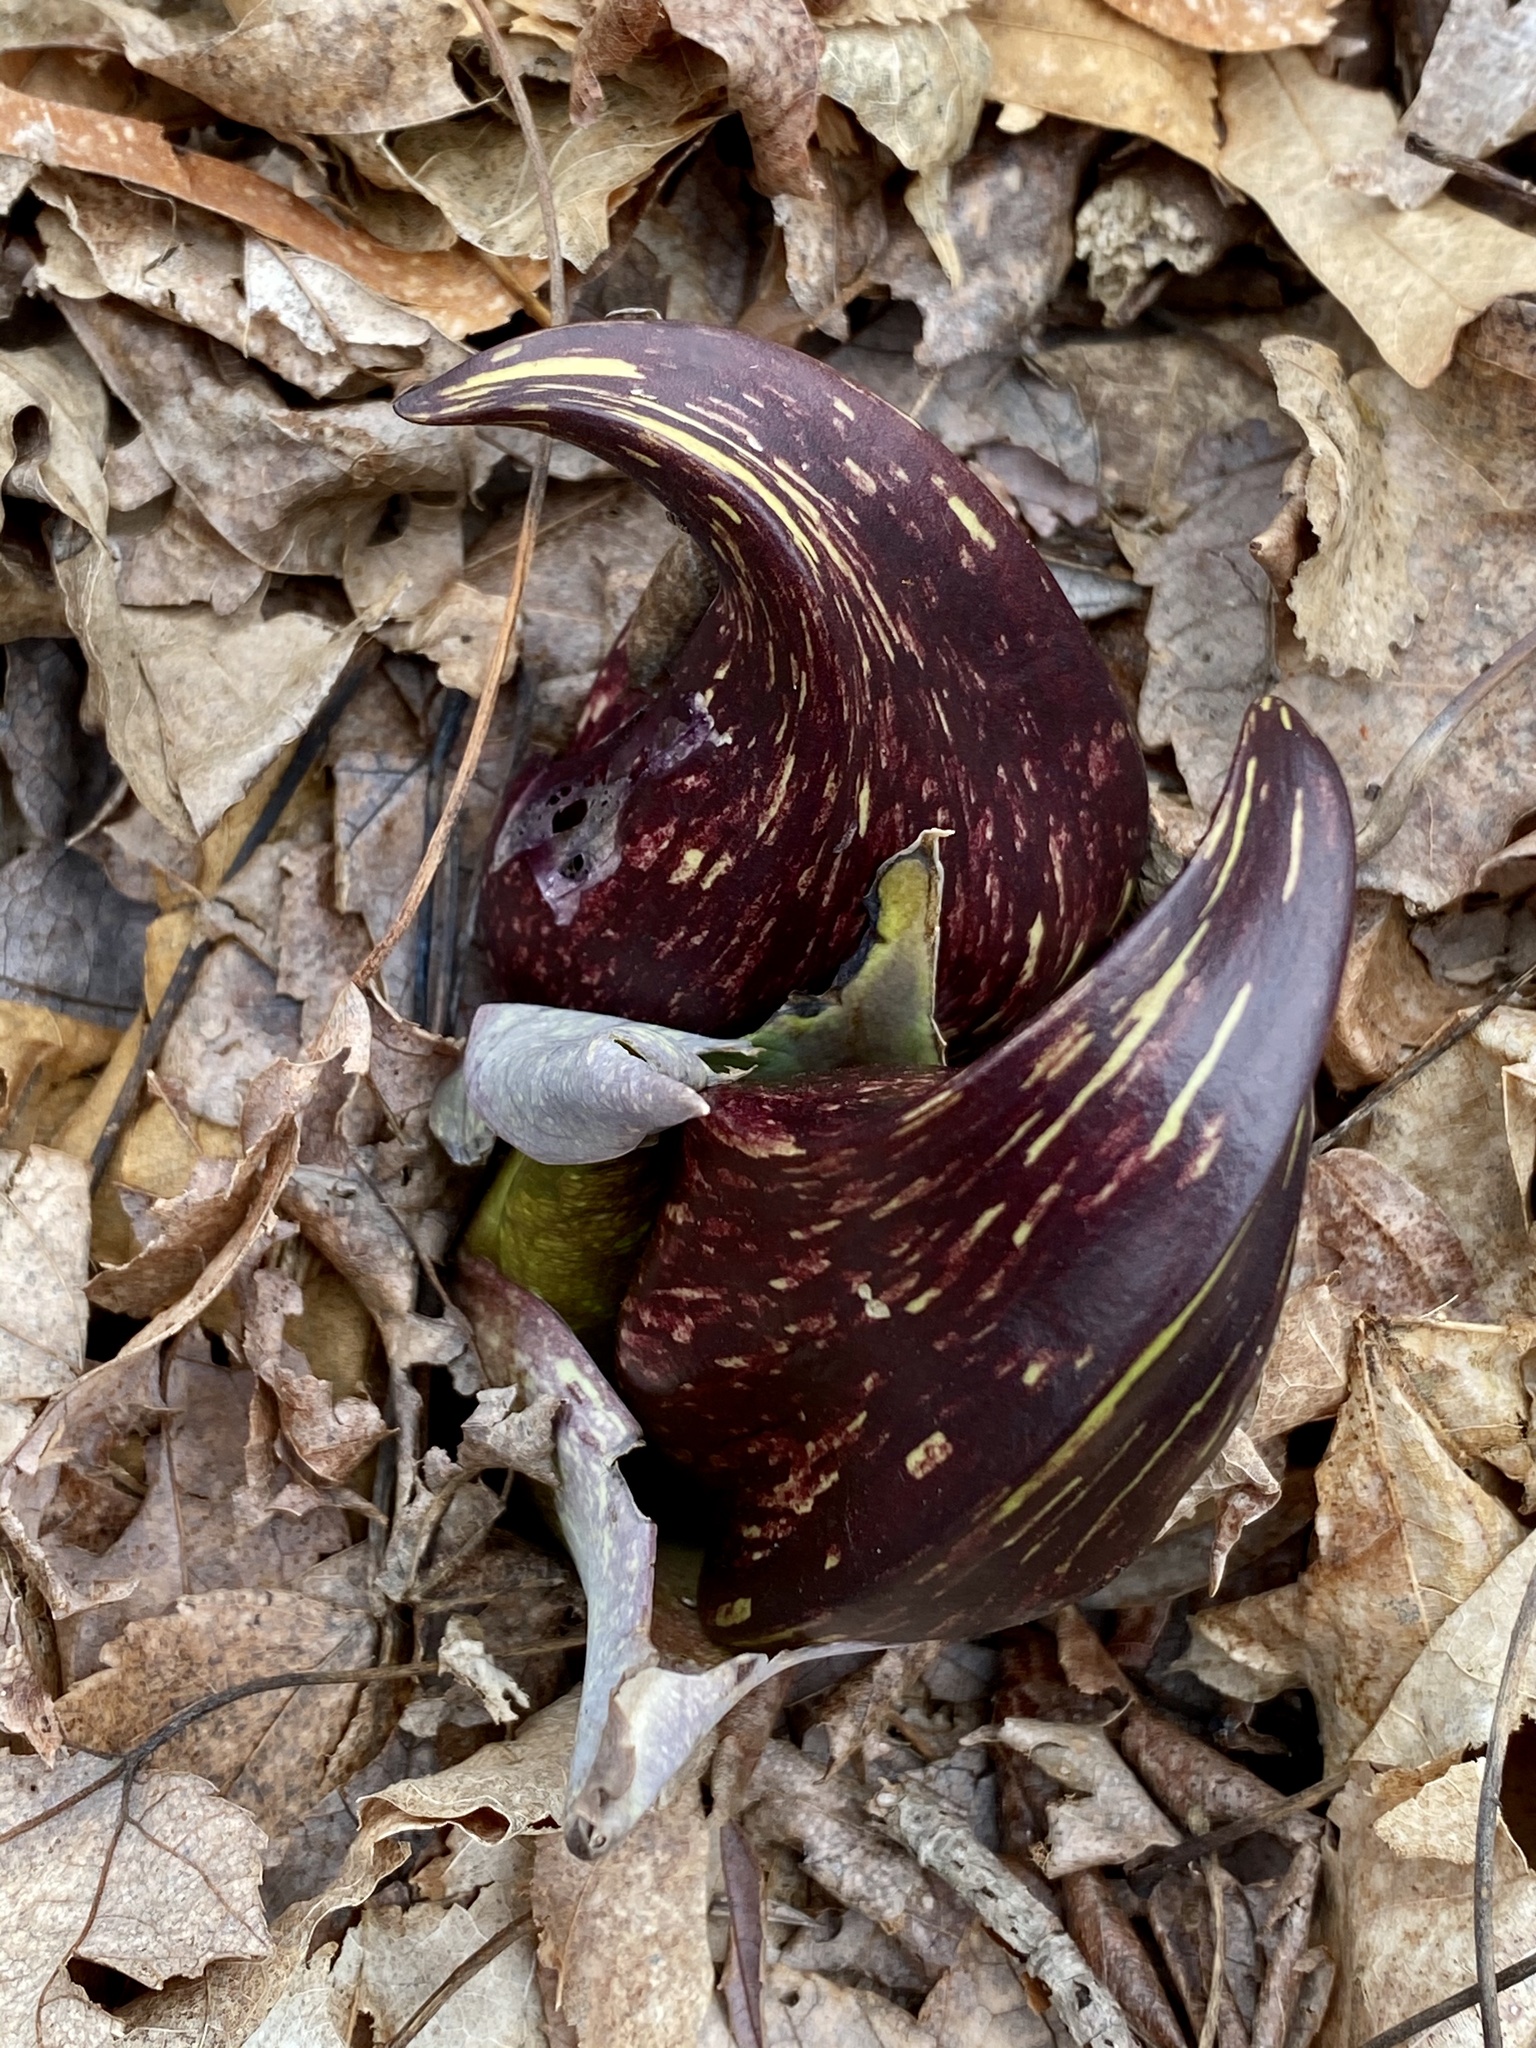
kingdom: Plantae
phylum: Tracheophyta
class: Liliopsida
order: Alismatales
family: Araceae
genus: Symplocarpus
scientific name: Symplocarpus foetidus
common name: Eastern skunk cabbage
